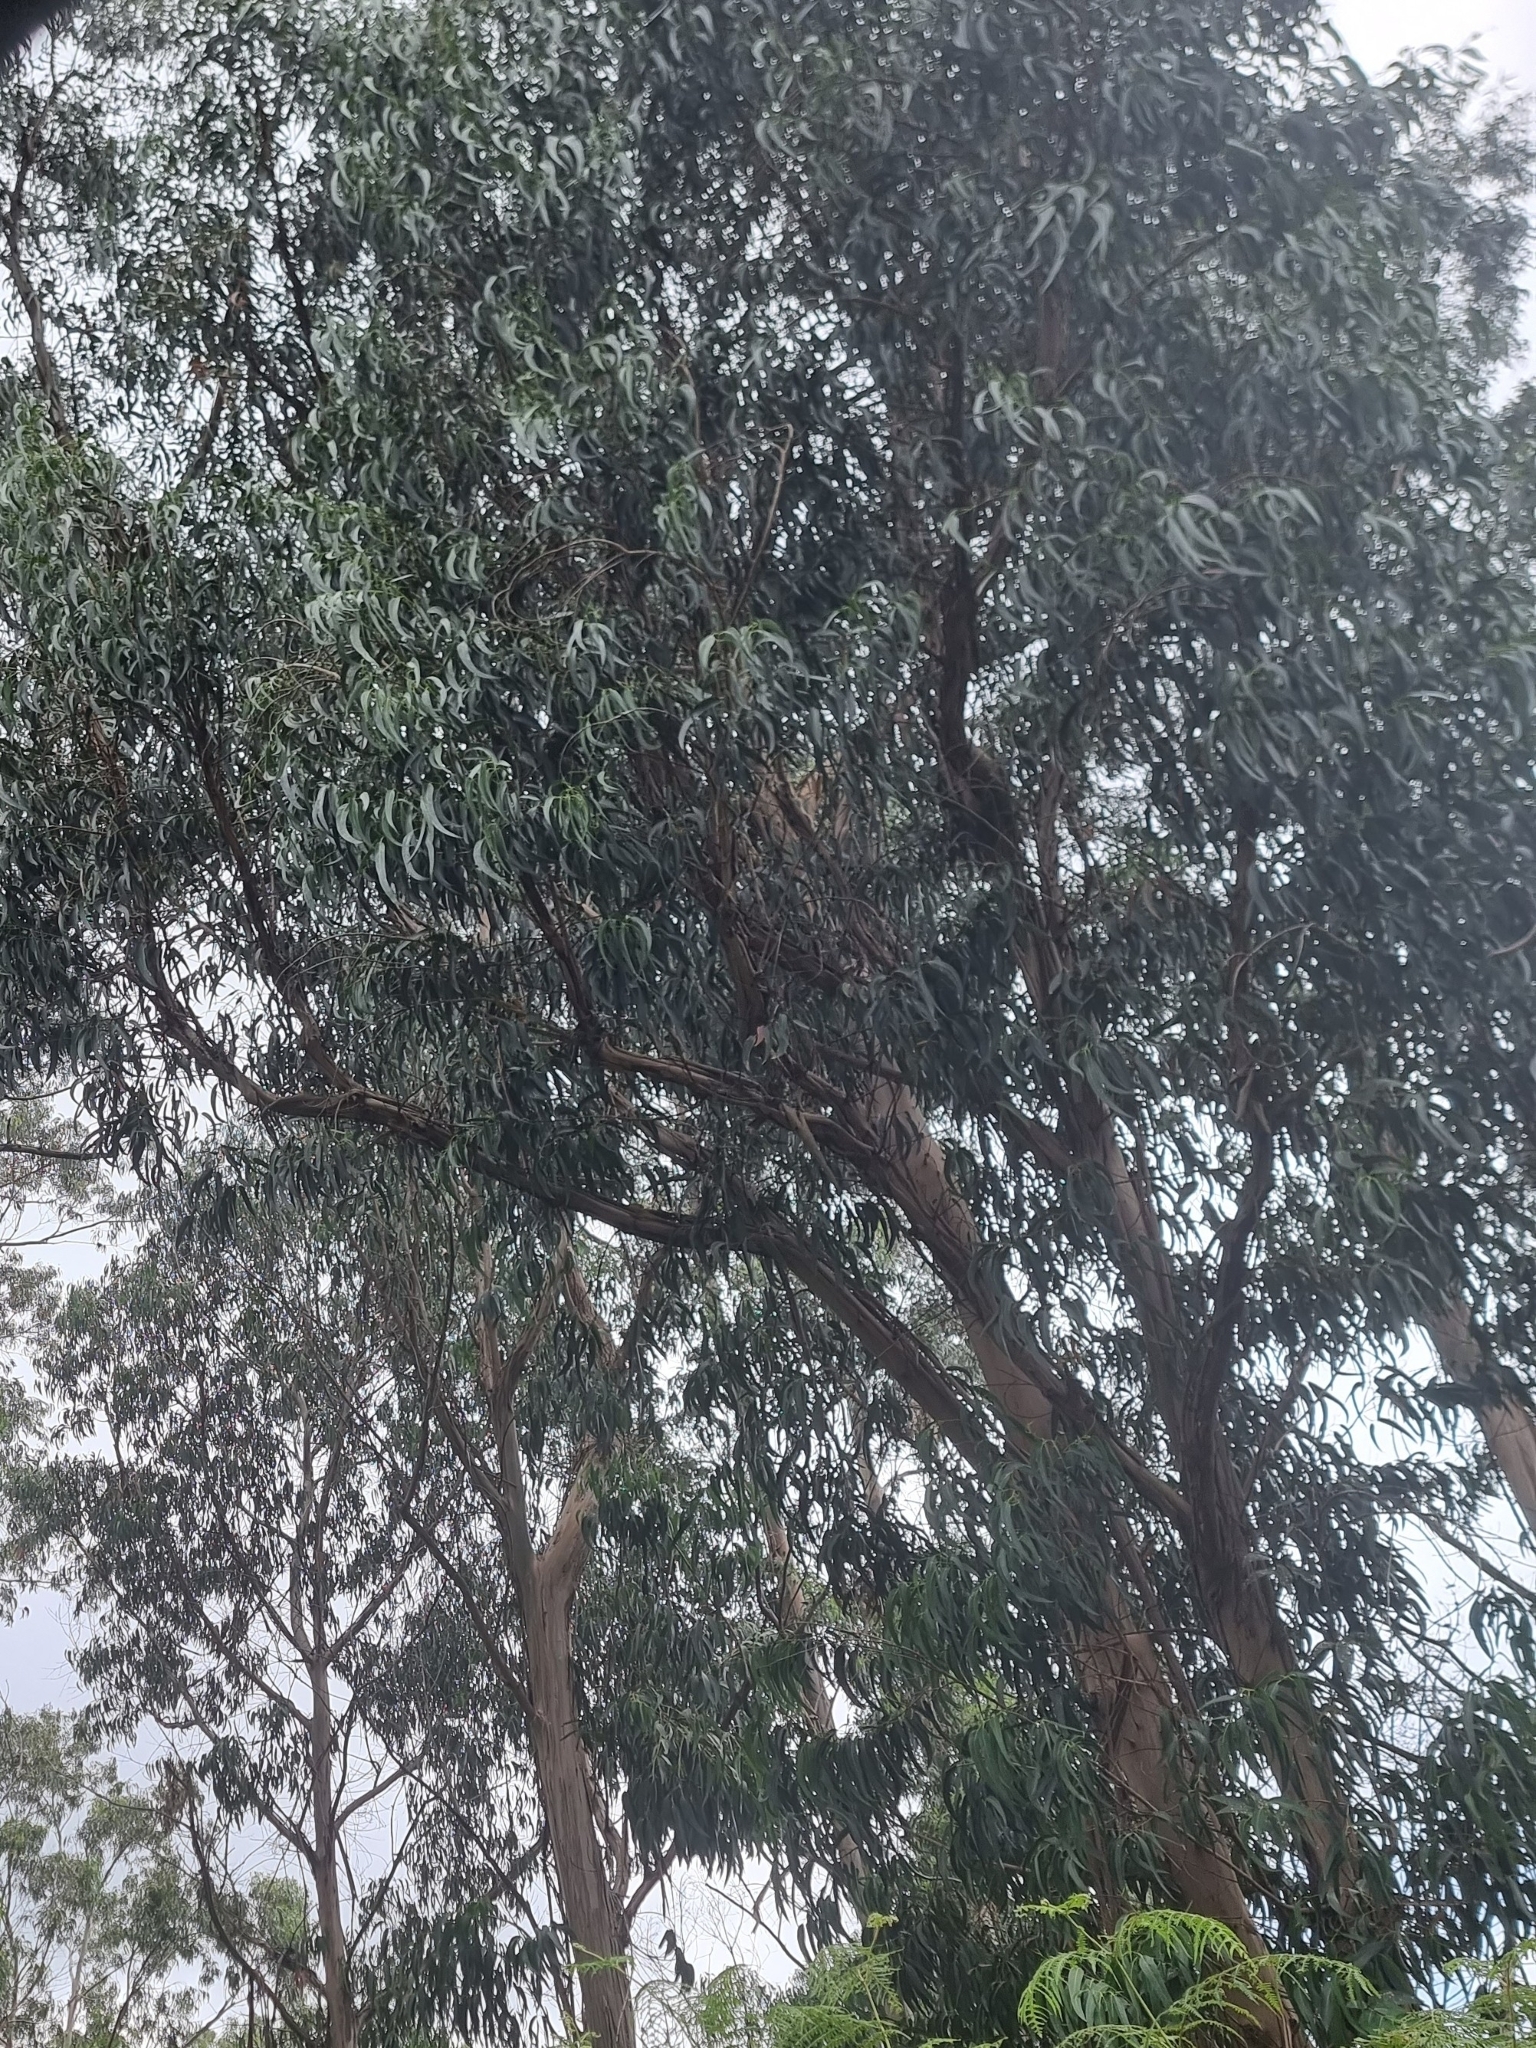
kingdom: Plantae
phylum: Tracheophyta
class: Magnoliopsida
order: Myrtales
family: Myrtaceae
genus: Eucalyptus
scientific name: Eucalyptus globulus
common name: Southern blue-gum
